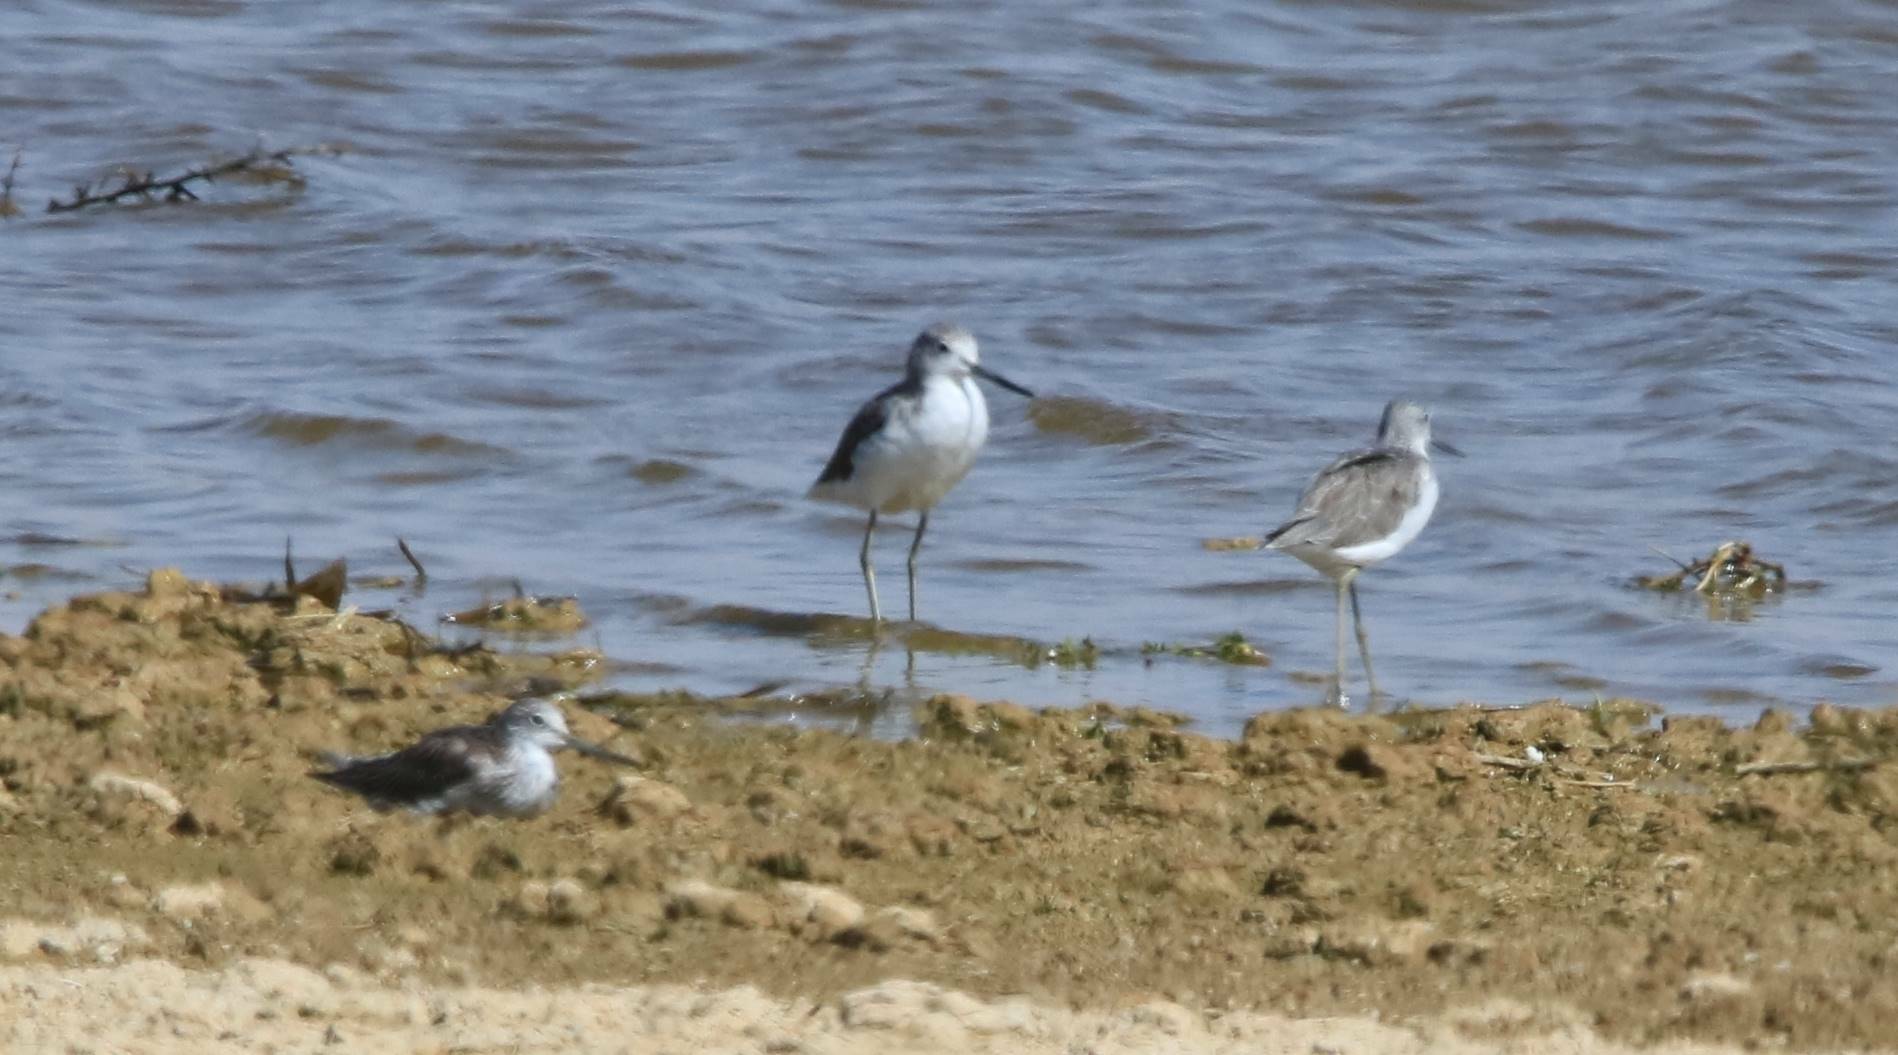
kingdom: Animalia
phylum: Chordata
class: Aves
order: Charadriiformes
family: Scolopacidae
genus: Tringa
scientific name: Tringa nebularia
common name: Common greenshank
